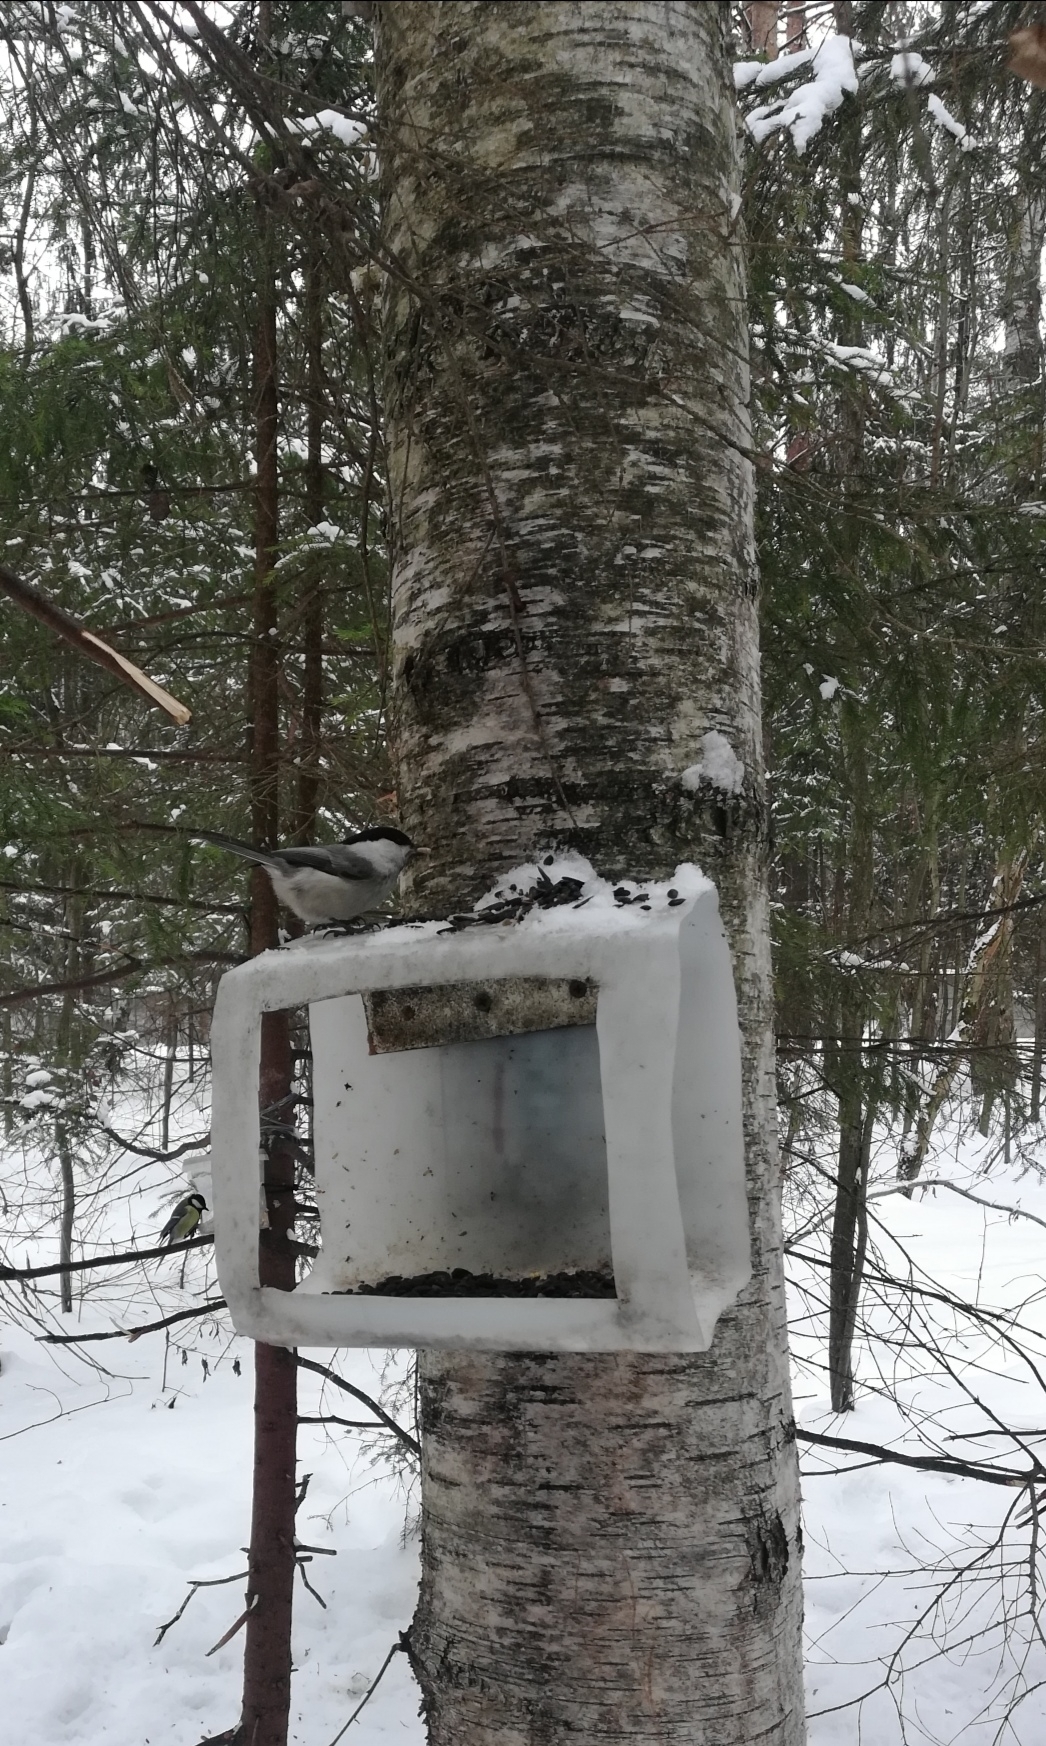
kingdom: Animalia
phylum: Chordata
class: Aves
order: Passeriformes
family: Paridae
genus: Poecile
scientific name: Poecile montanus
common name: Willow tit
